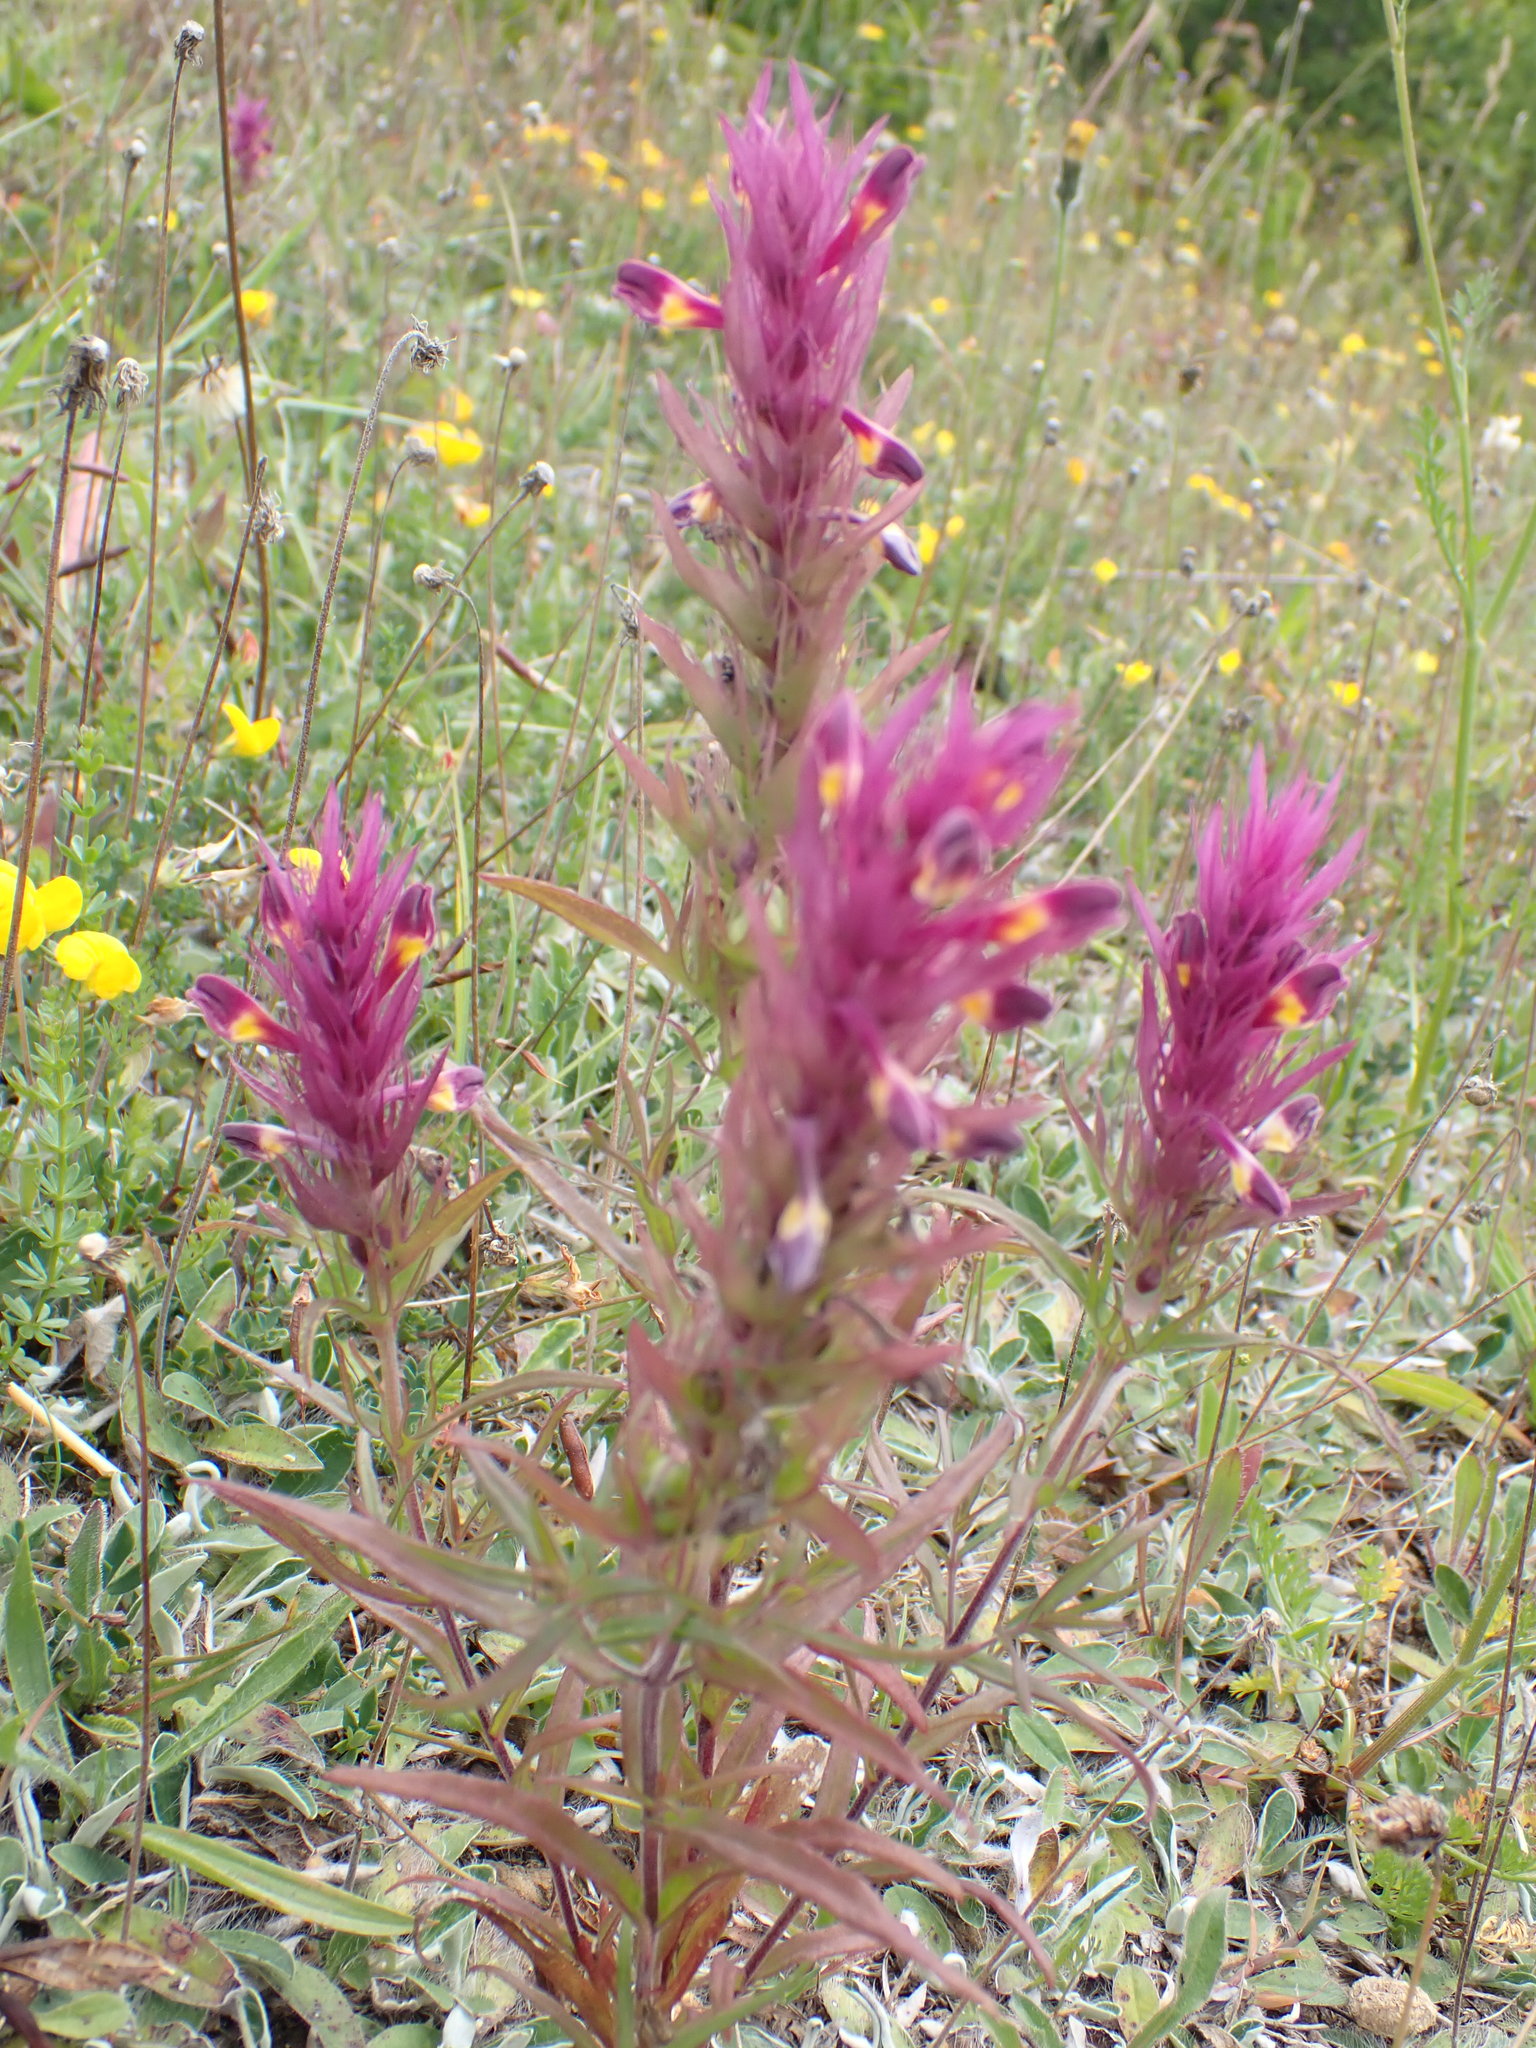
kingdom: Plantae
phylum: Tracheophyta
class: Magnoliopsida
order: Lamiales
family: Orobanchaceae
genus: Melampyrum
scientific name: Melampyrum arvense
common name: Field cow-wheat
